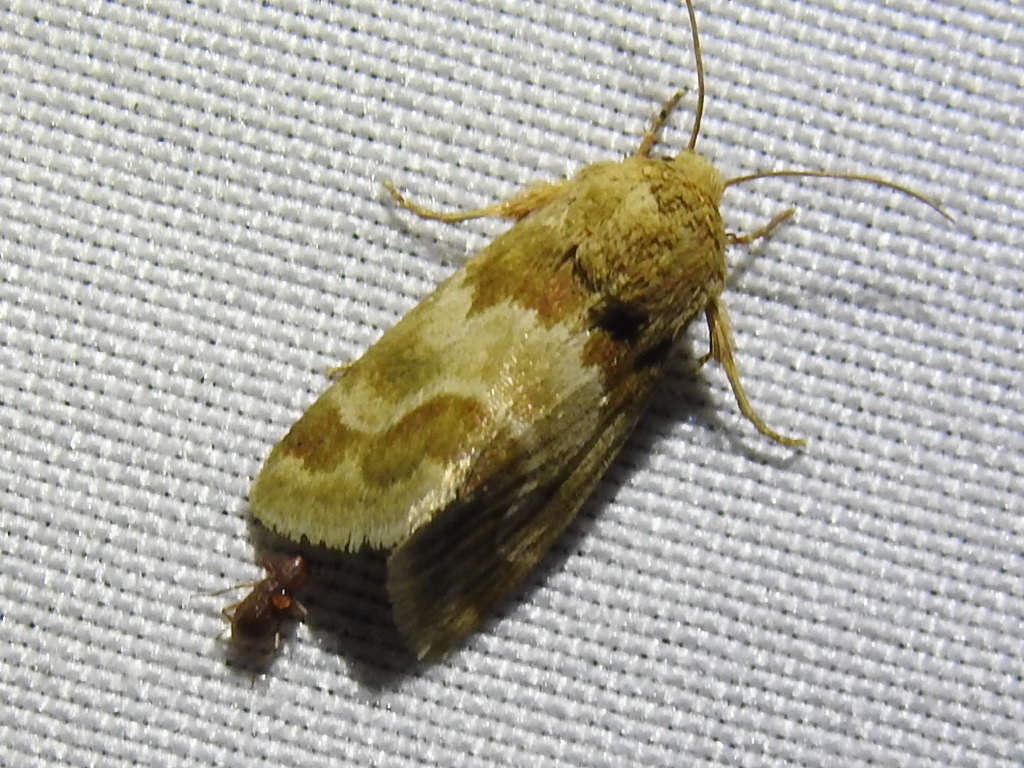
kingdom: Animalia
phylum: Arthropoda
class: Insecta
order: Lepidoptera
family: Noctuidae
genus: Schinia
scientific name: Schinia lynx
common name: Lynx flower moth
